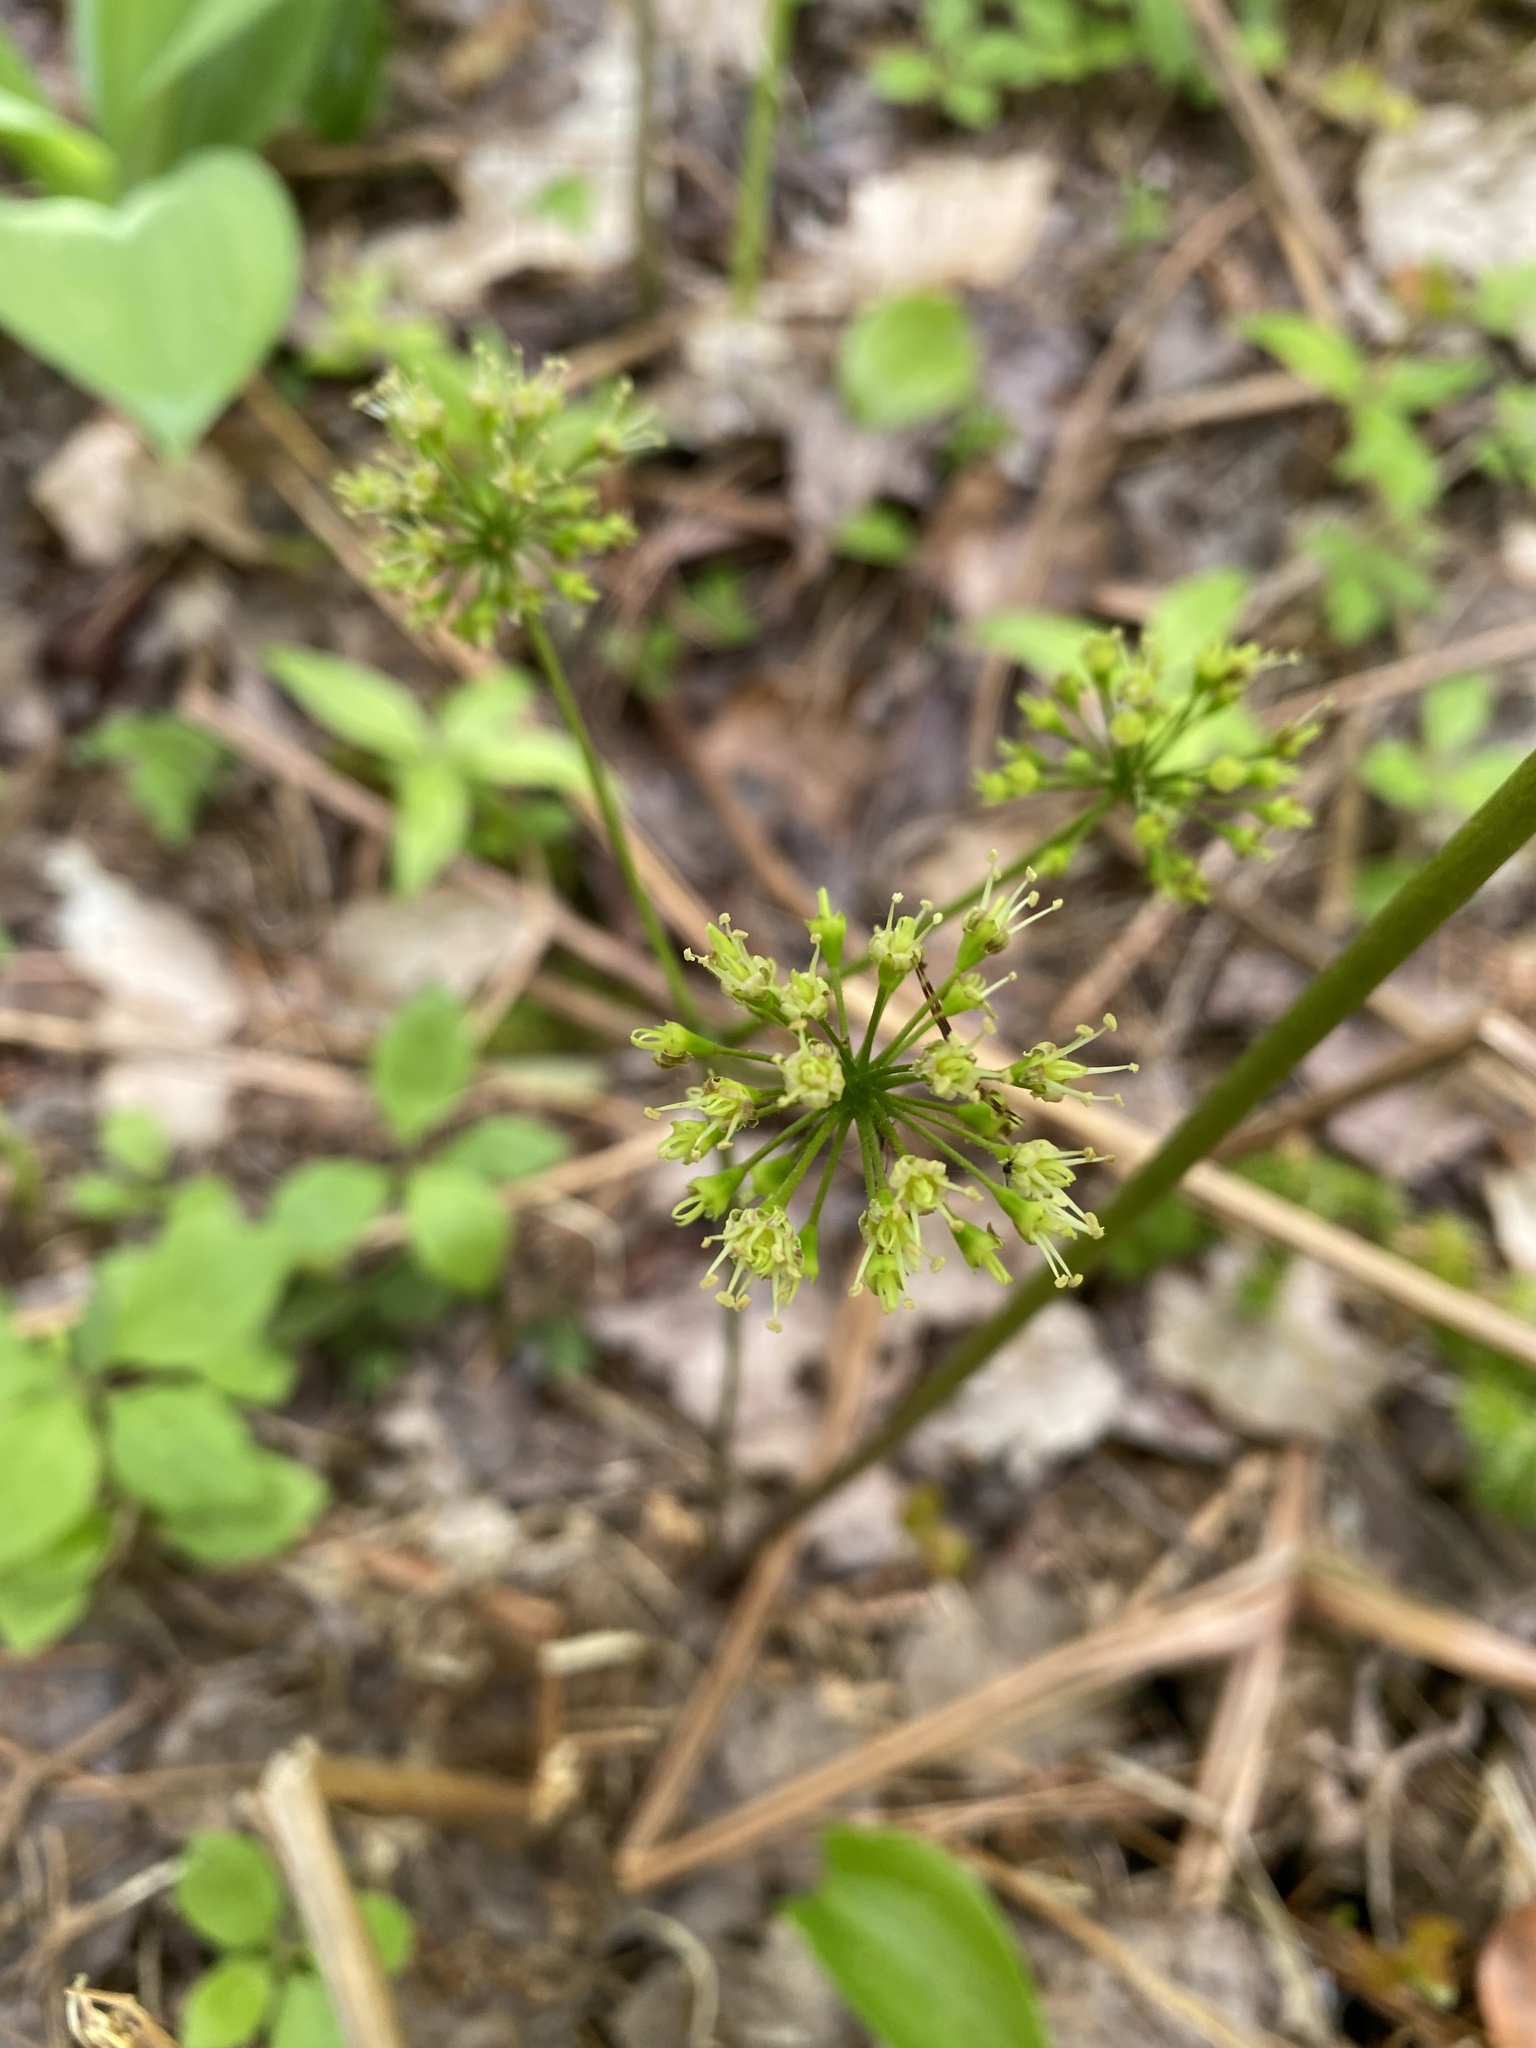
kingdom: Plantae
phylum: Tracheophyta
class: Magnoliopsida
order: Apiales
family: Araliaceae
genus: Aralia
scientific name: Aralia nudicaulis
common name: Wild sarsaparilla
